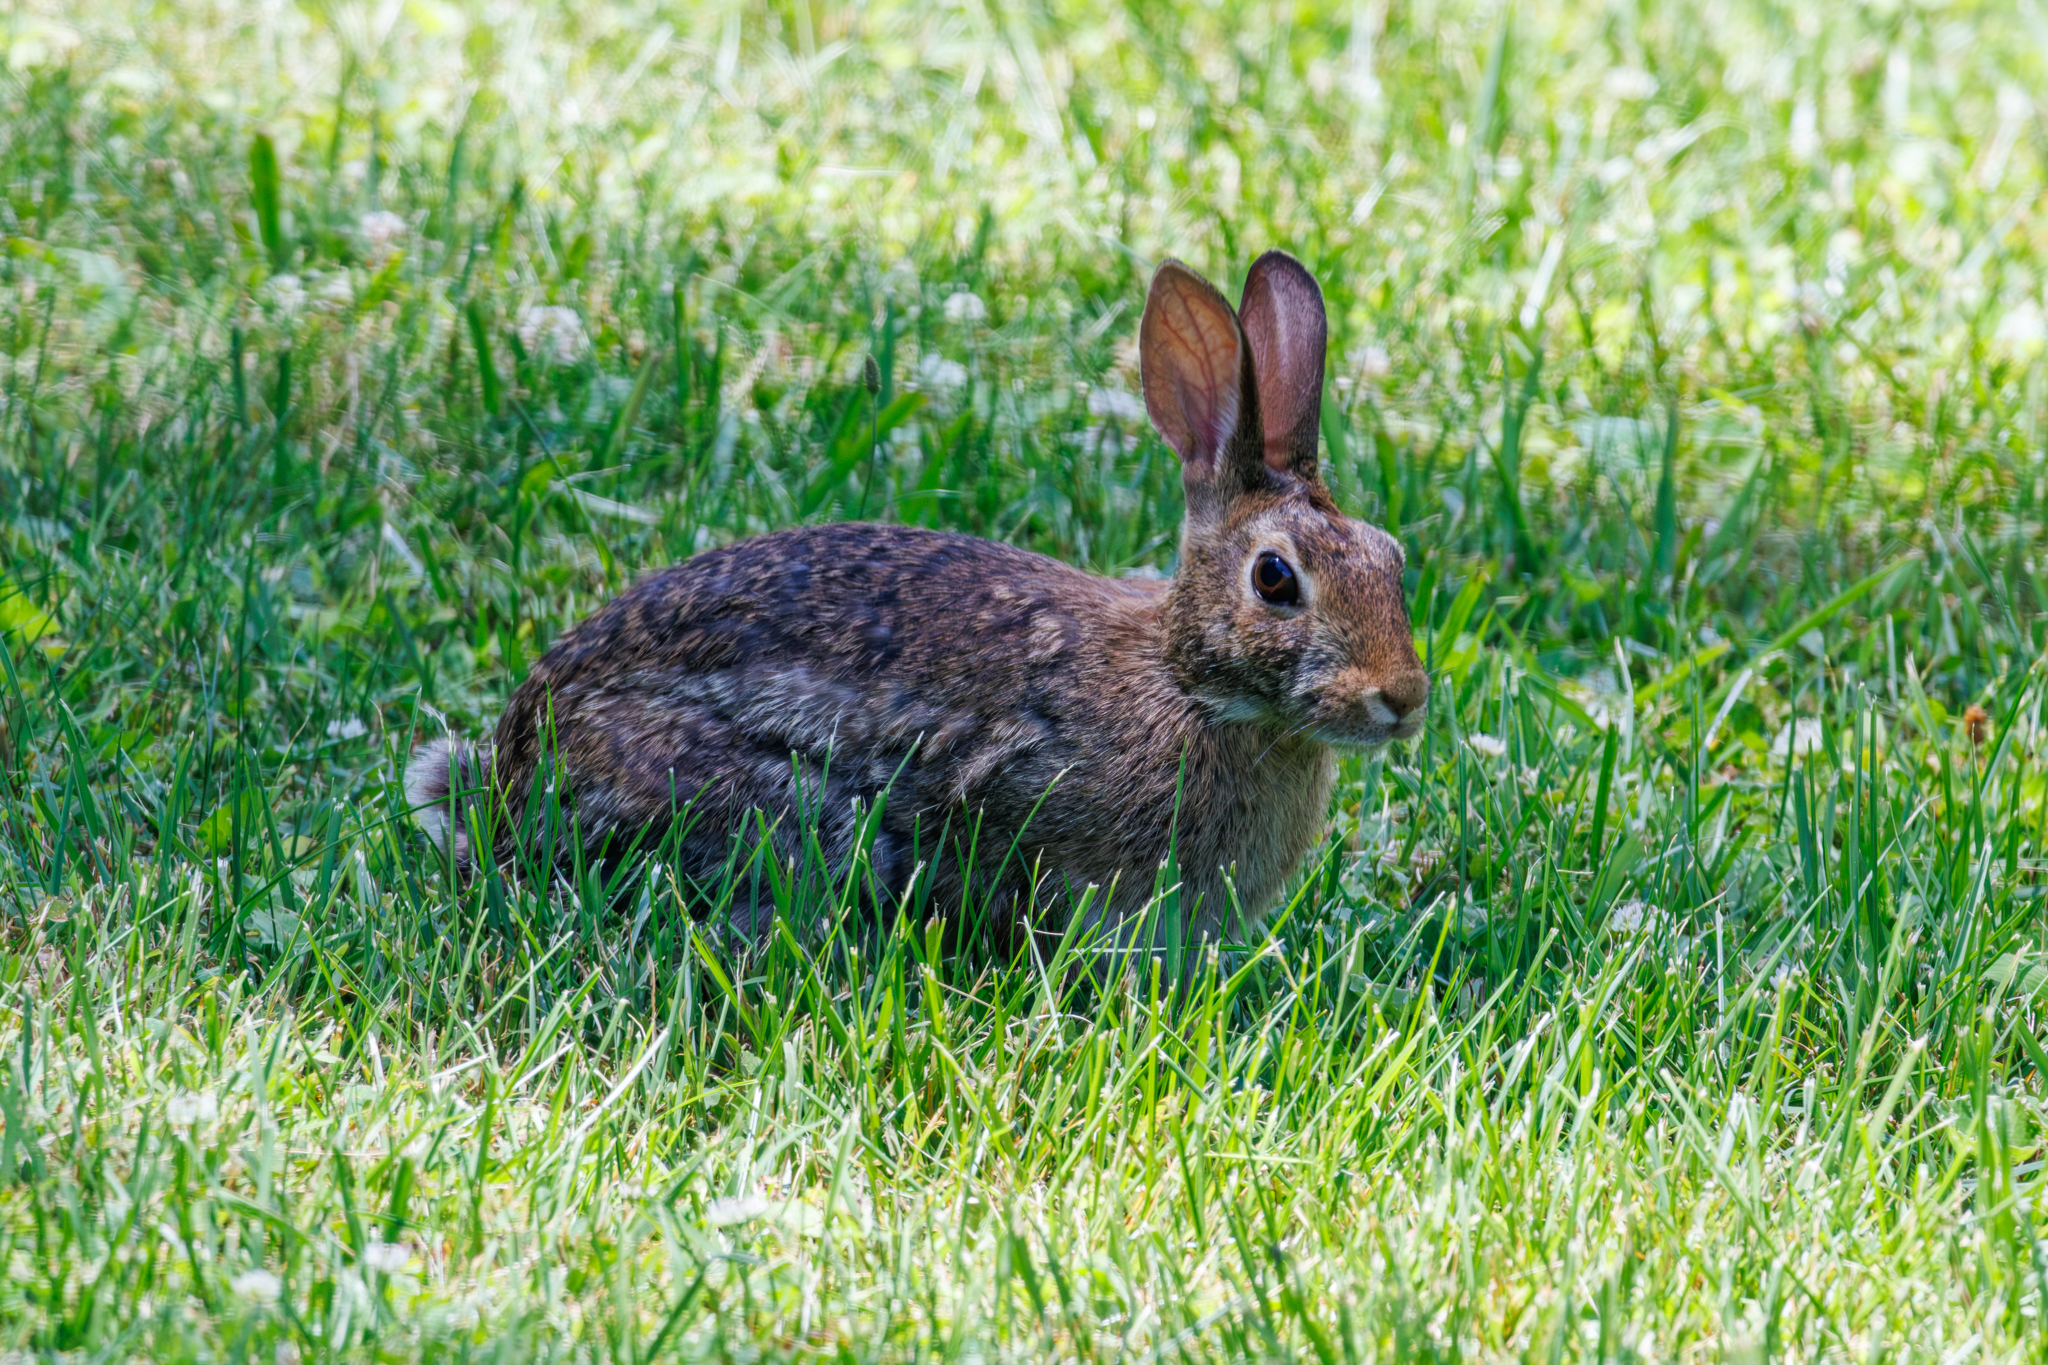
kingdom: Animalia
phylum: Chordata
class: Mammalia
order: Lagomorpha
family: Leporidae
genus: Sylvilagus
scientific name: Sylvilagus floridanus
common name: Eastern cottontail
